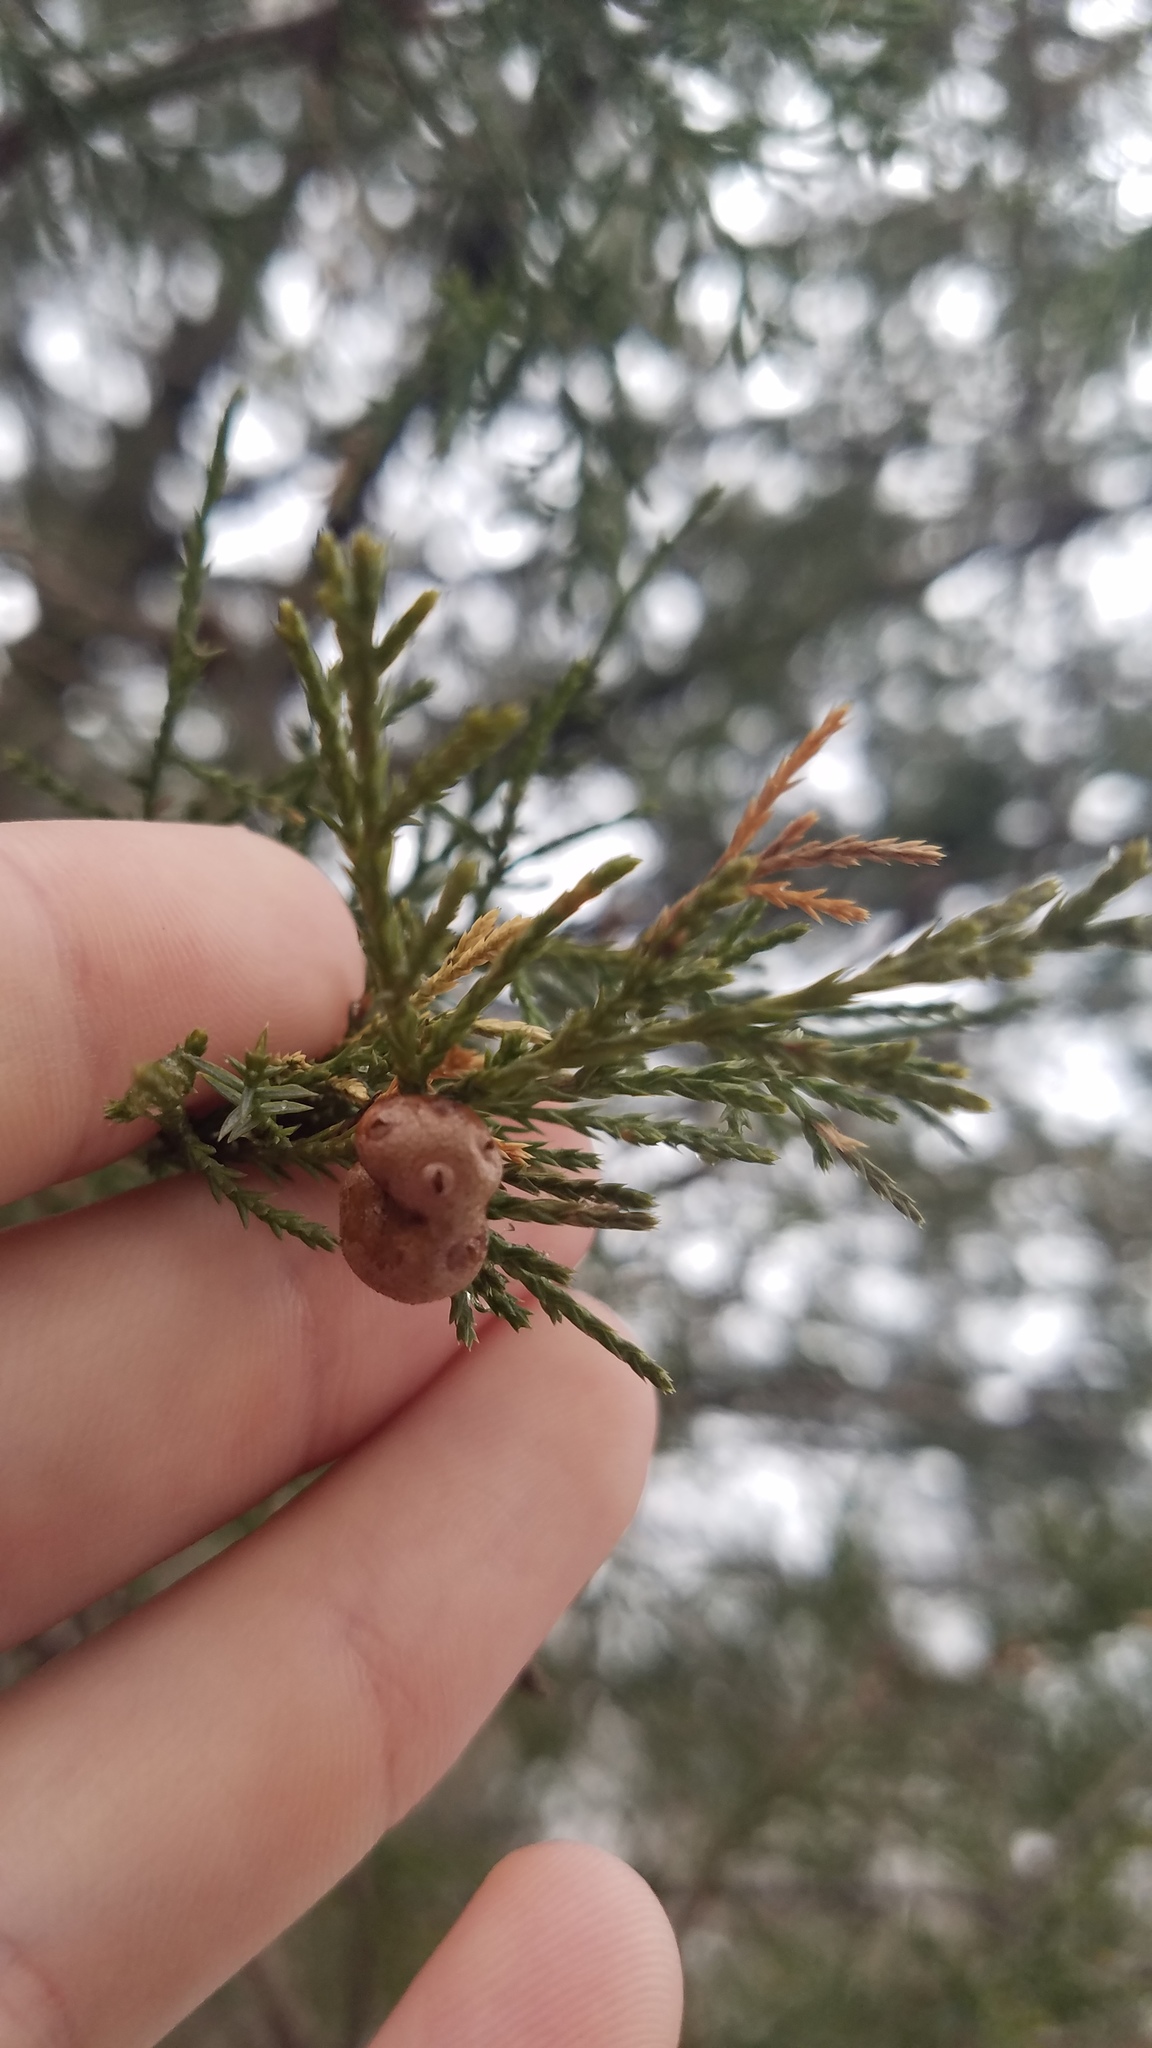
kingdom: Fungi
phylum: Basidiomycota
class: Pucciniomycetes
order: Pucciniales
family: Gymnosporangiaceae
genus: Gymnosporangium
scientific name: Gymnosporangium juniperi-virginianae
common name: Juniper-apple rust
